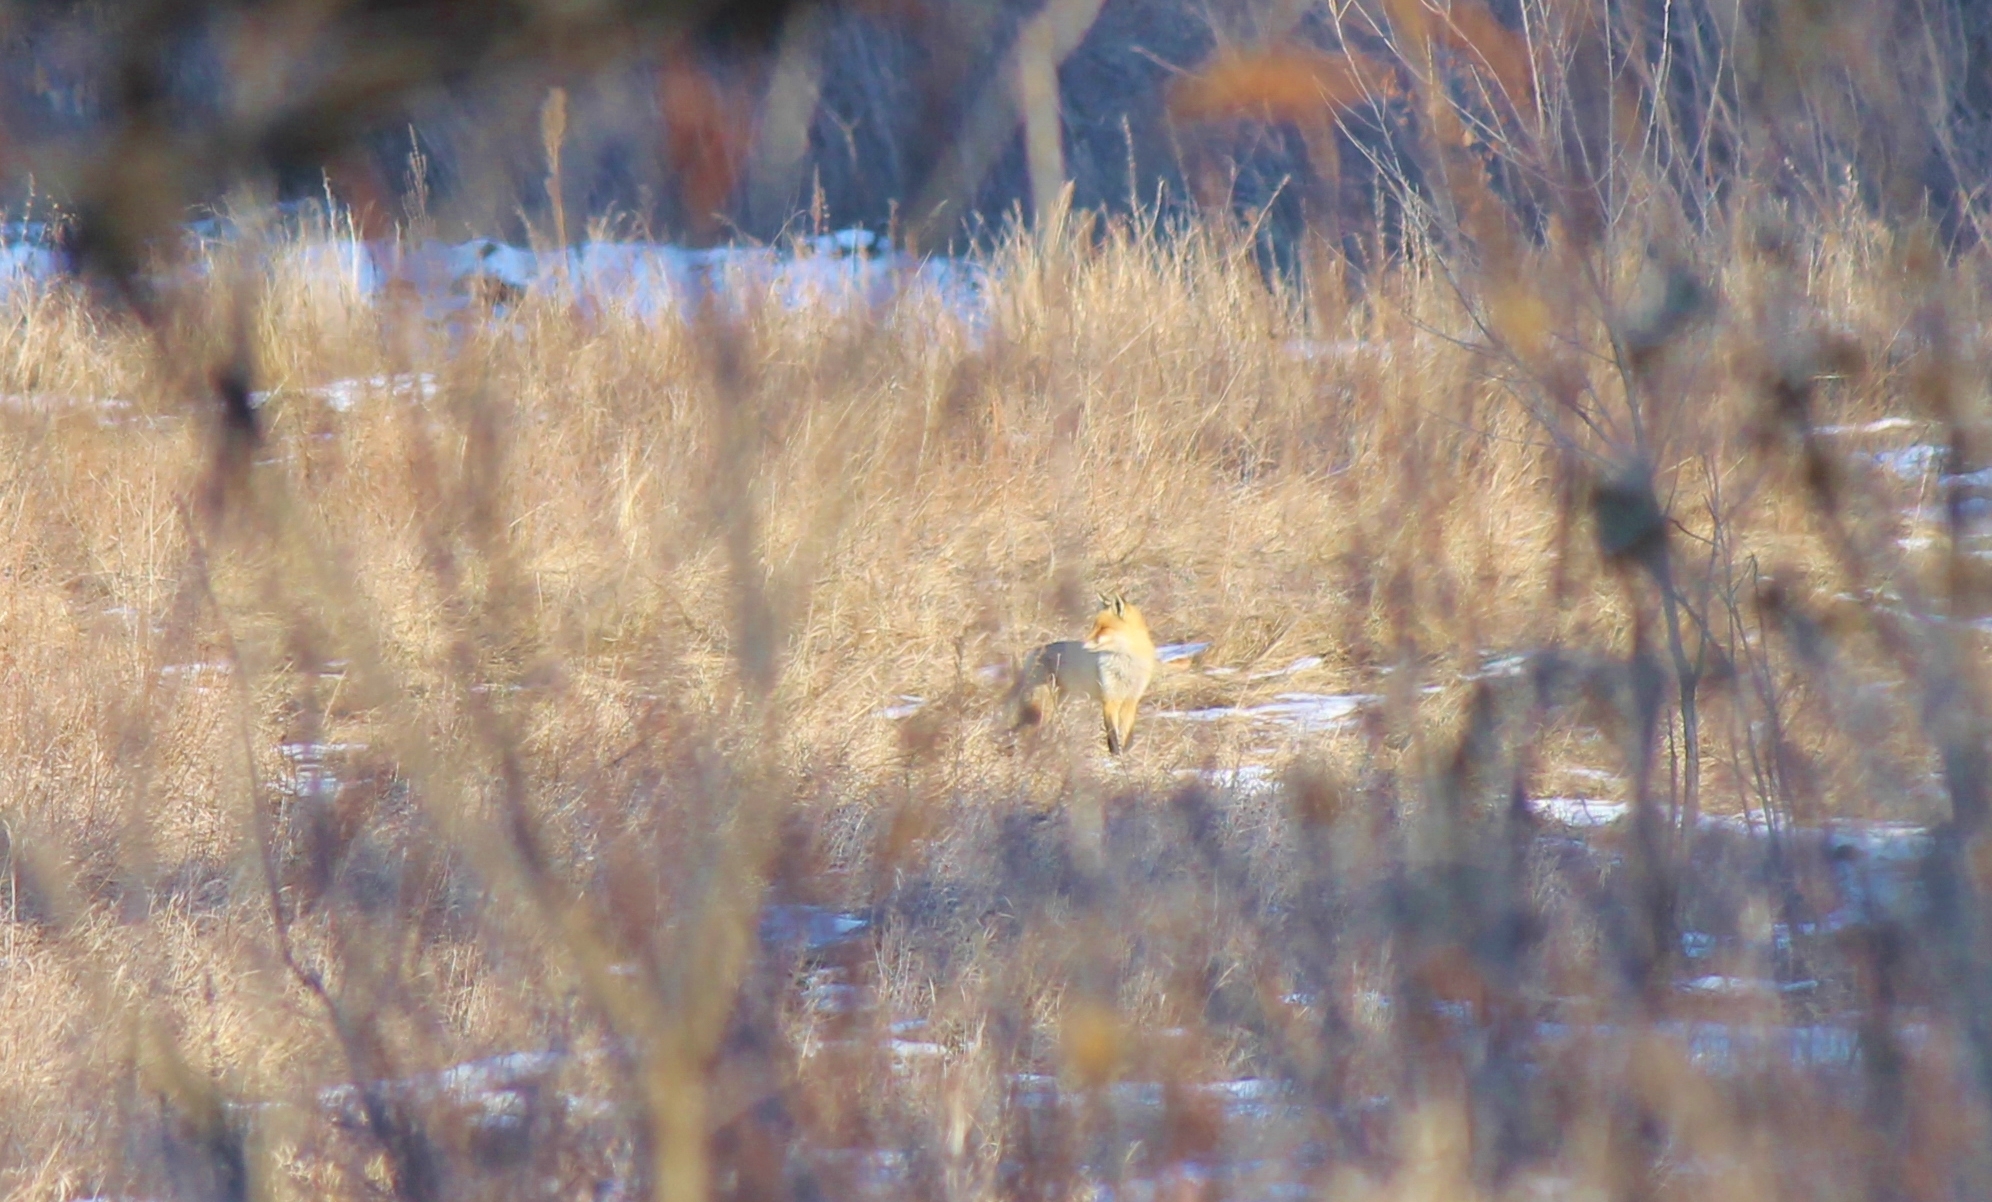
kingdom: Animalia
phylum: Chordata
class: Mammalia
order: Carnivora
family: Canidae
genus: Vulpes
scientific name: Vulpes vulpes
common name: Red fox
